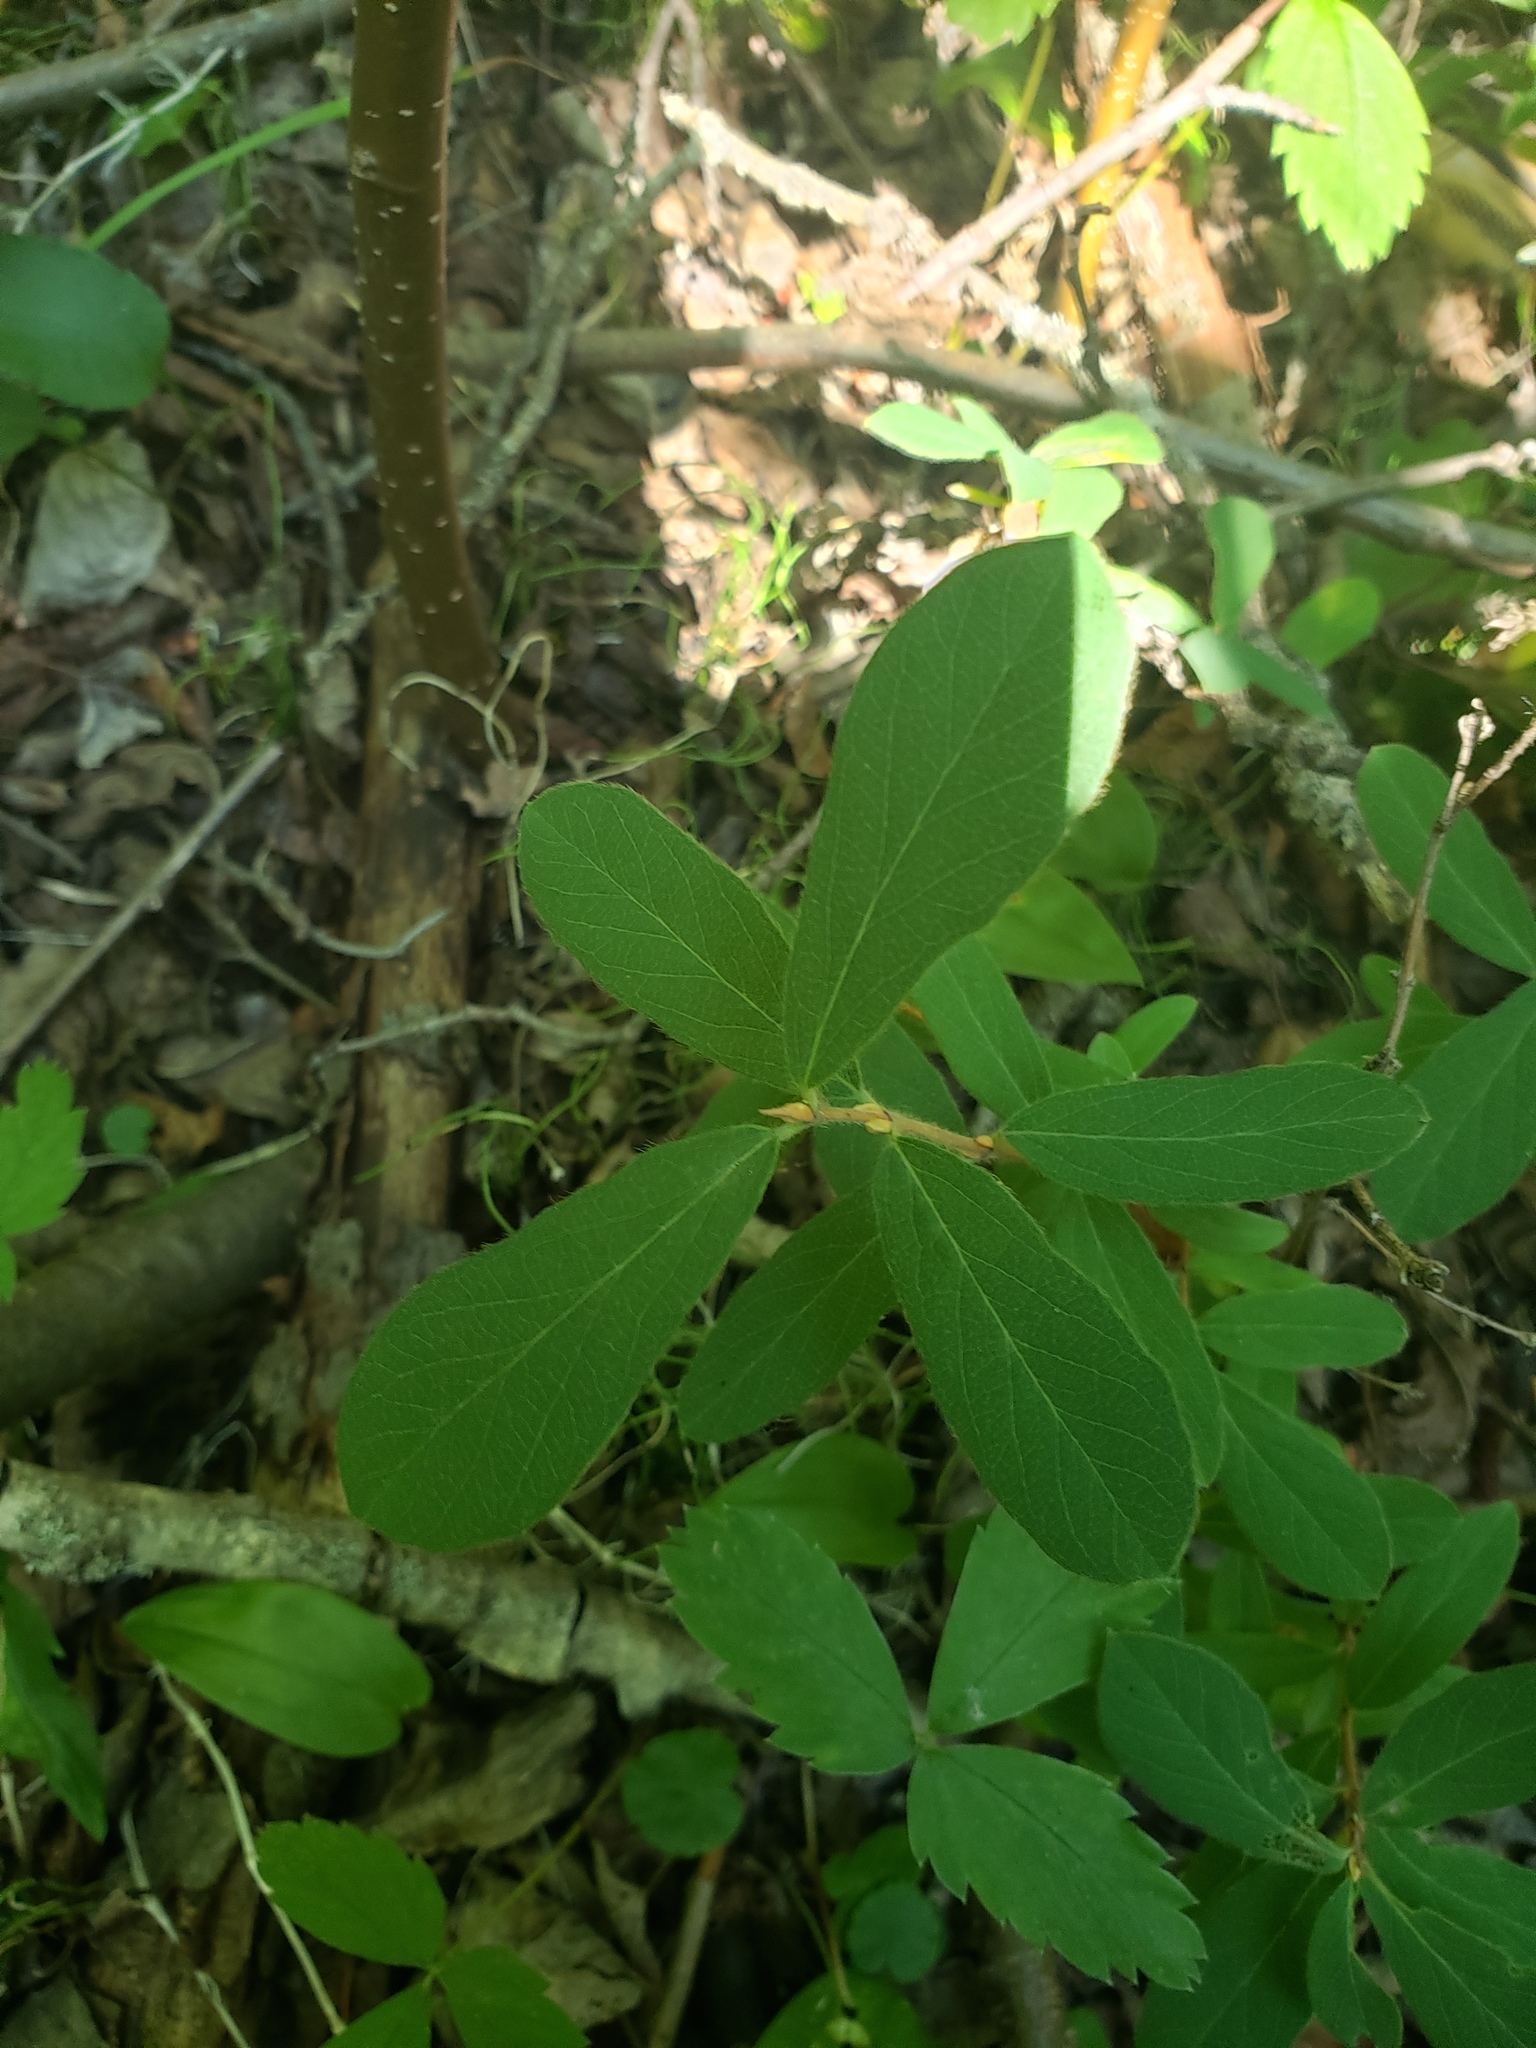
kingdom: Plantae
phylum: Tracheophyta
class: Magnoliopsida
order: Dipsacales
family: Caprifoliaceae
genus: Lonicera
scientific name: Lonicera villosa
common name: Mountain fly-honeysuckle
